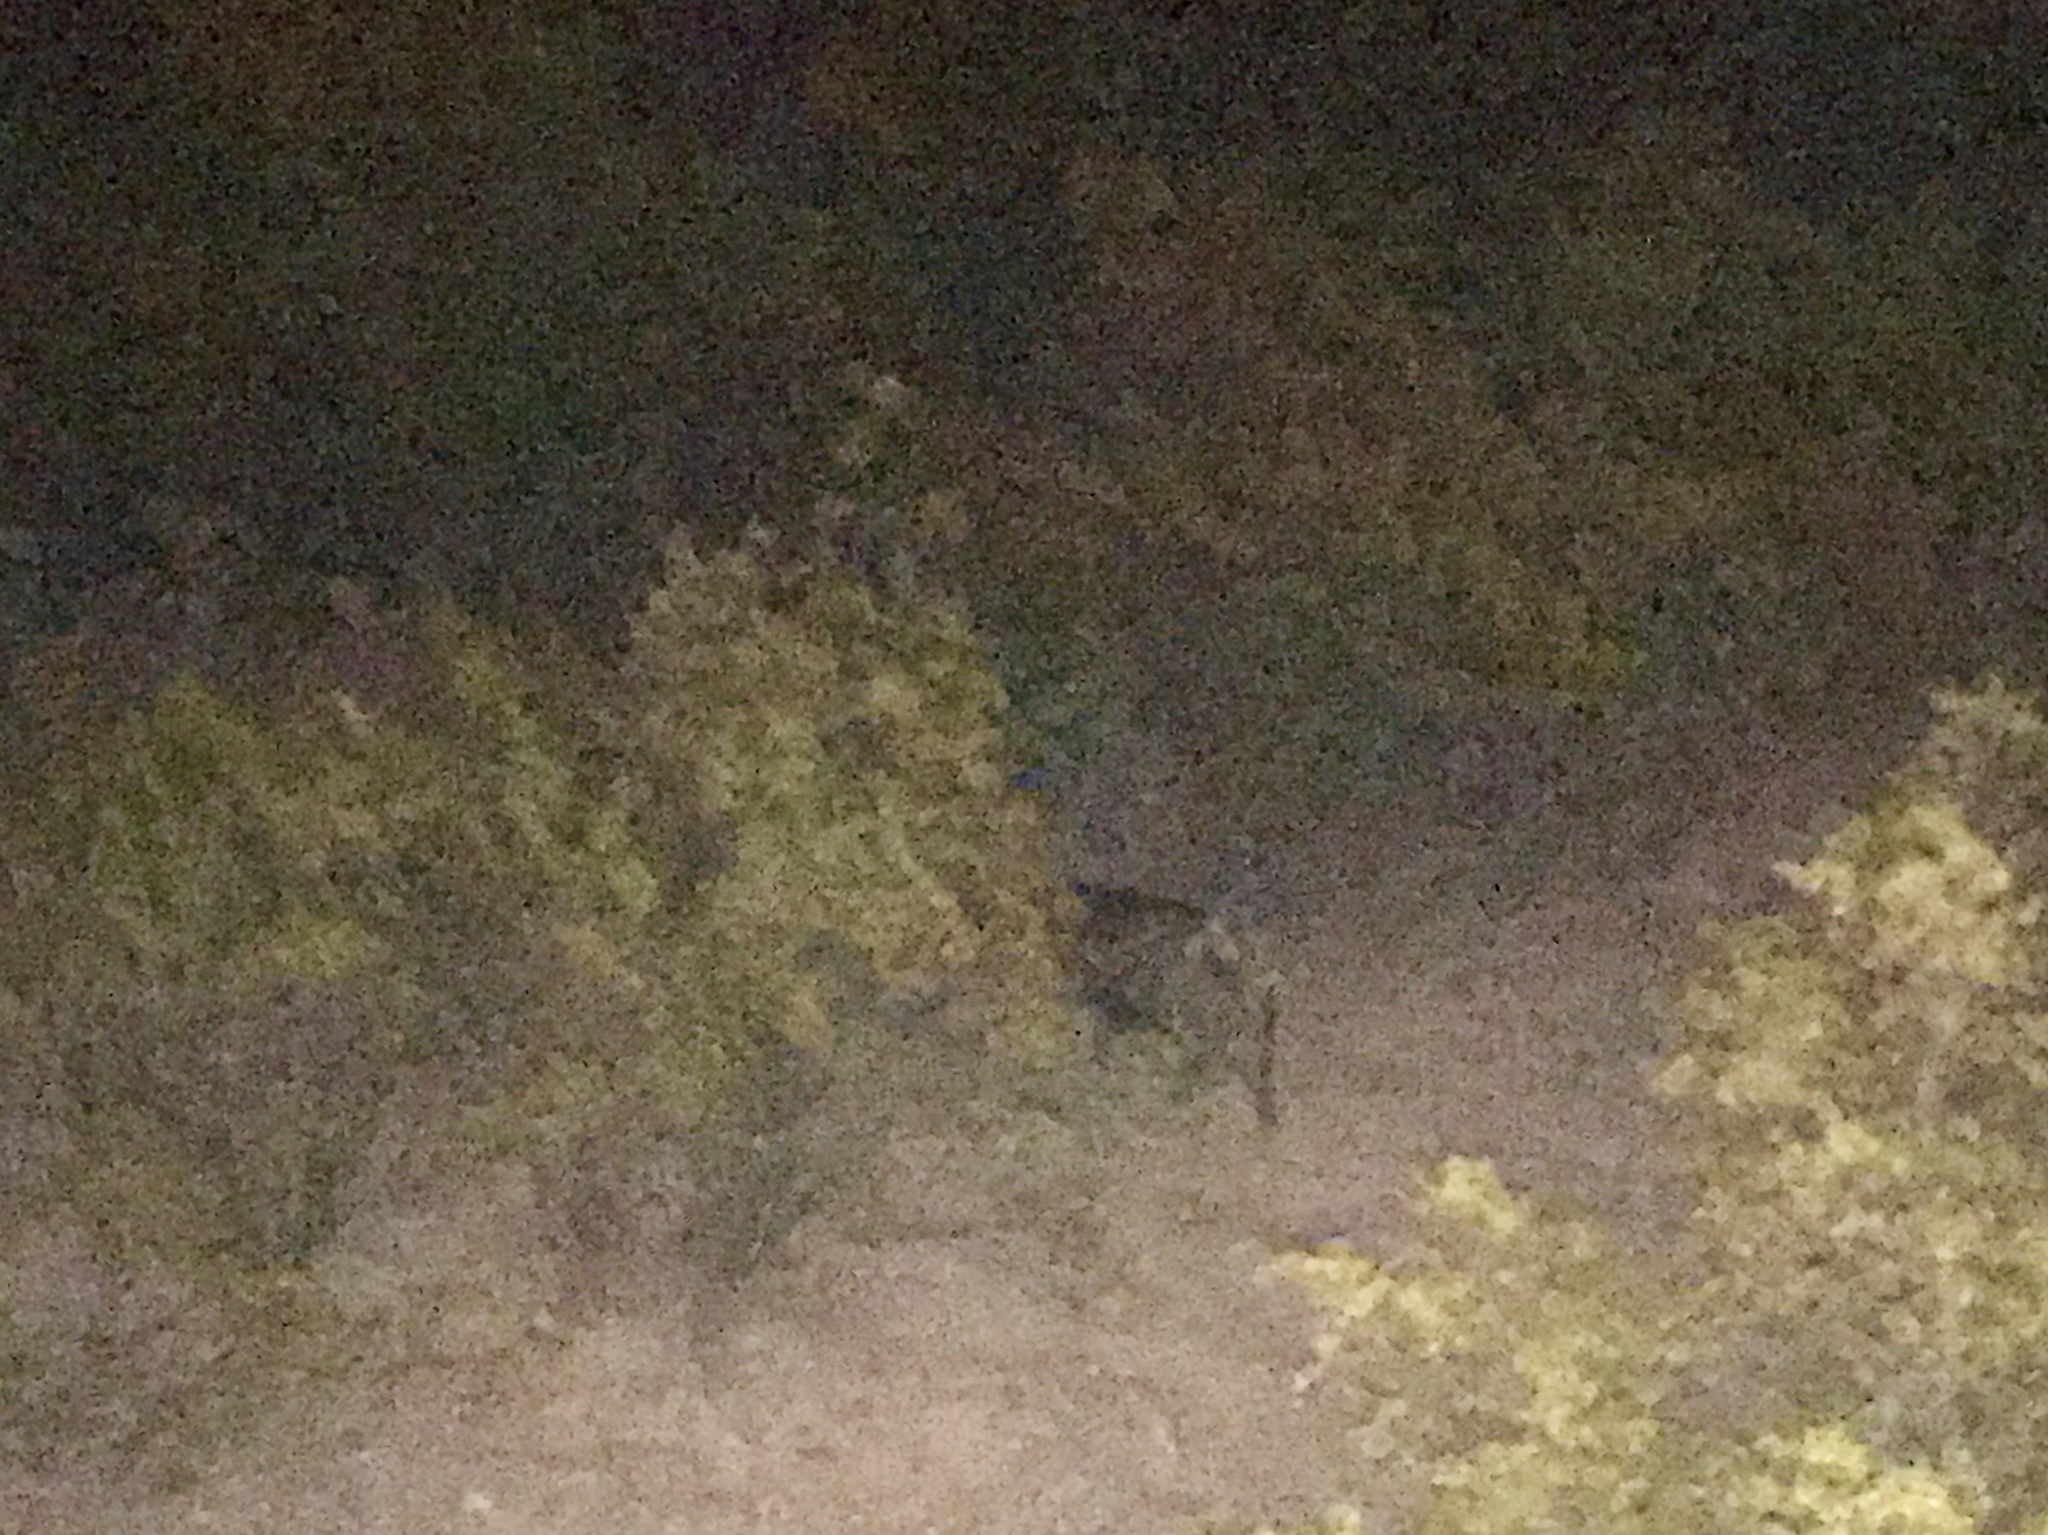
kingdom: Animalia
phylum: Chordata
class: Mammalia
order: Artiodactyla
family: Tayassuidae
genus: Pecari
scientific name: Pecari tajacu
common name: Collared peccary
